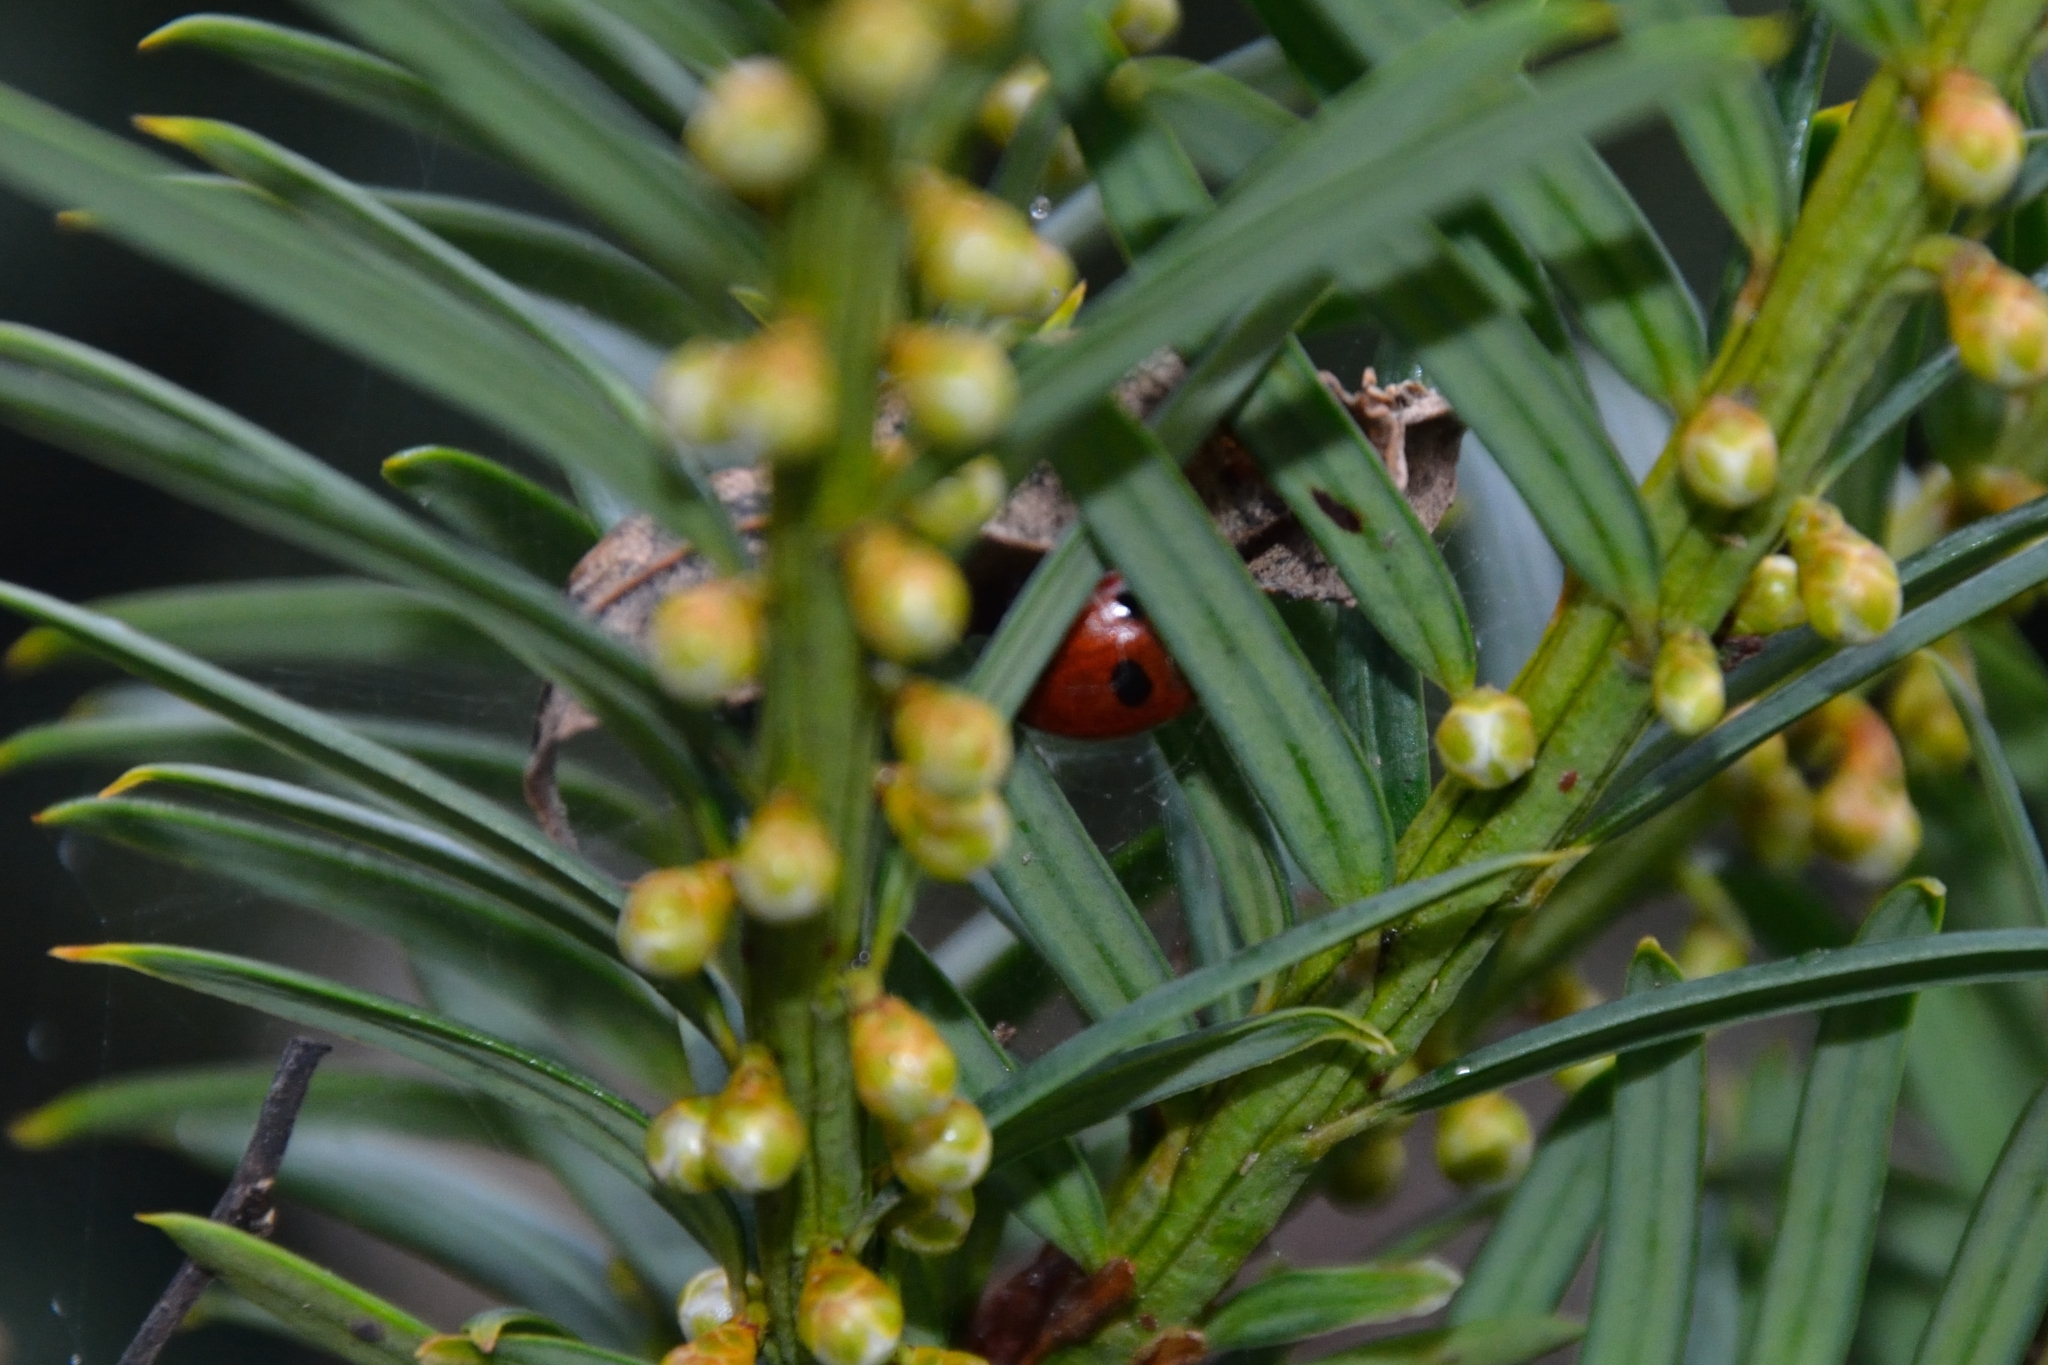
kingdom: Animalia
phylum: Arthropoda
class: Insecta
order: Coleoptera
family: Coccinellidae
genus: Coccinella
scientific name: Coccinella septempunctata
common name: Sevenspotted lady beetle
